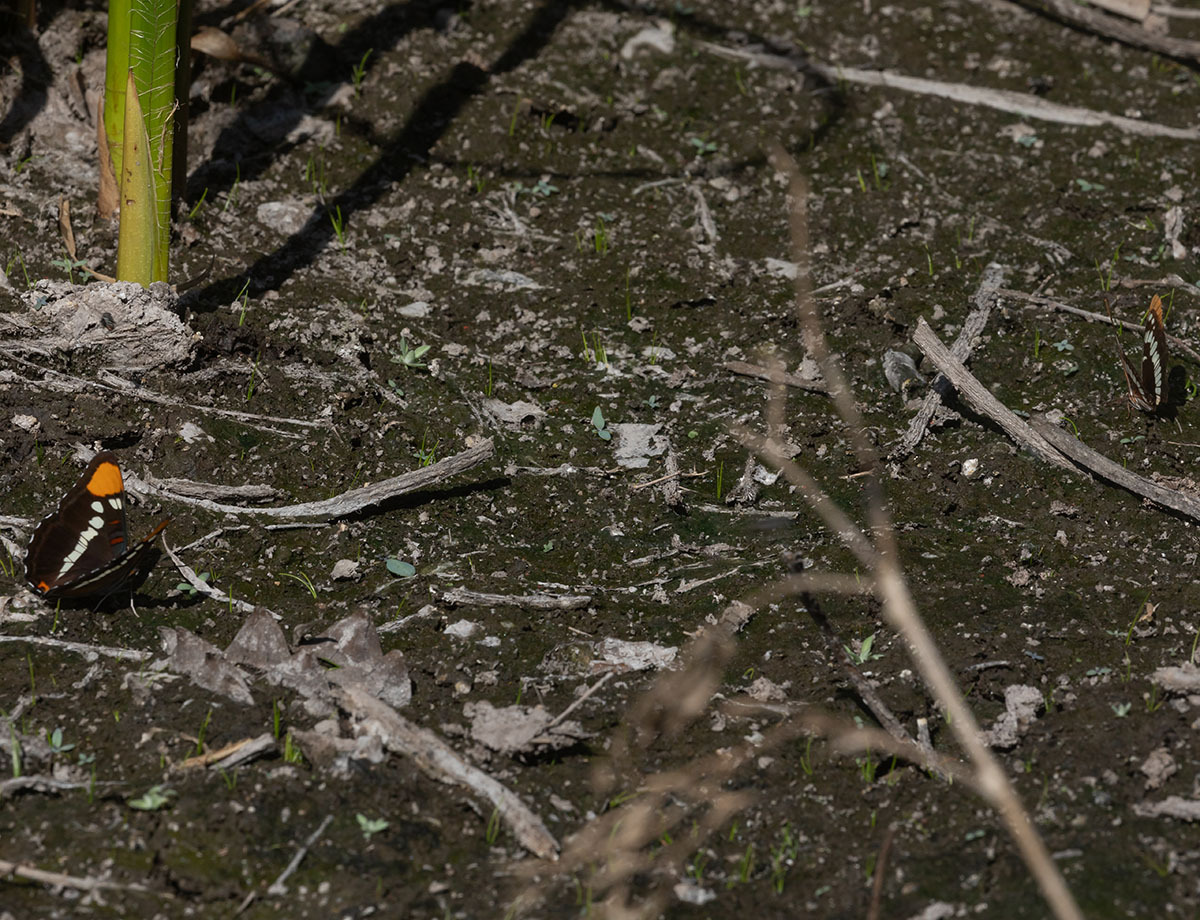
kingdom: Animalia
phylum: Arthropoda
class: Insecta
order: Lepidoptera
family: Nymphalidae
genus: Limenitis
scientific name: Limenitis lorquini
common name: Lorquin's admiral
